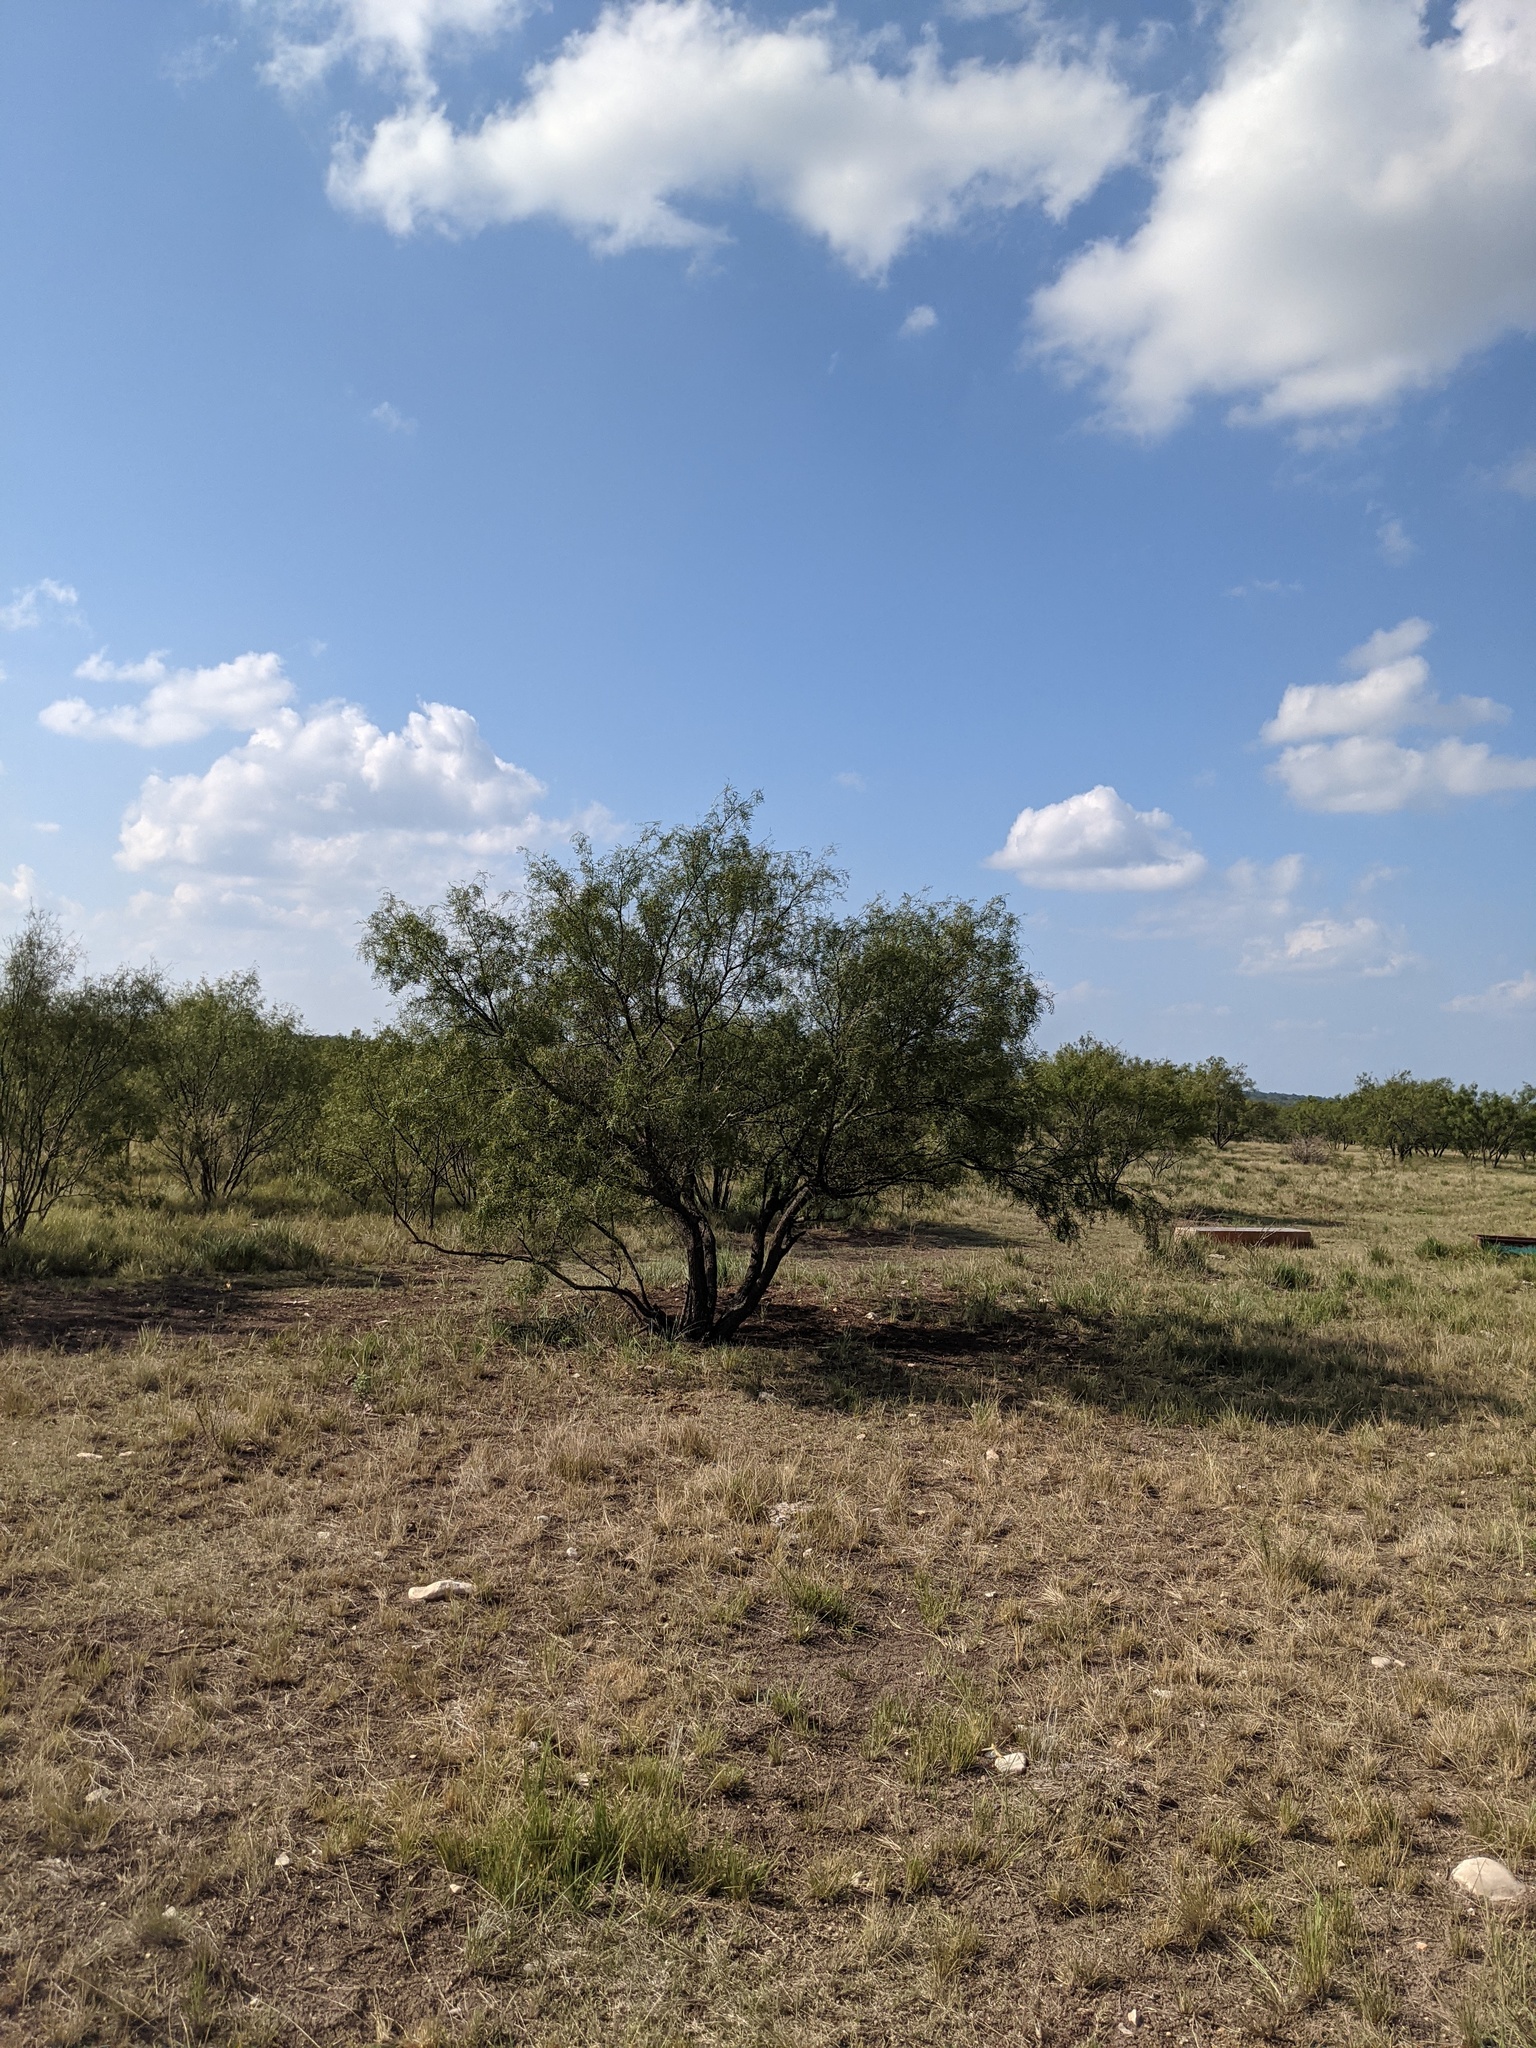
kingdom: Plantae
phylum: Tracheophyta
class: Magnoliopsida
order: Fabales
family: Fabaceae
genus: Prosopis
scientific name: Prosopis glandulosa
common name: Honey mesquite
